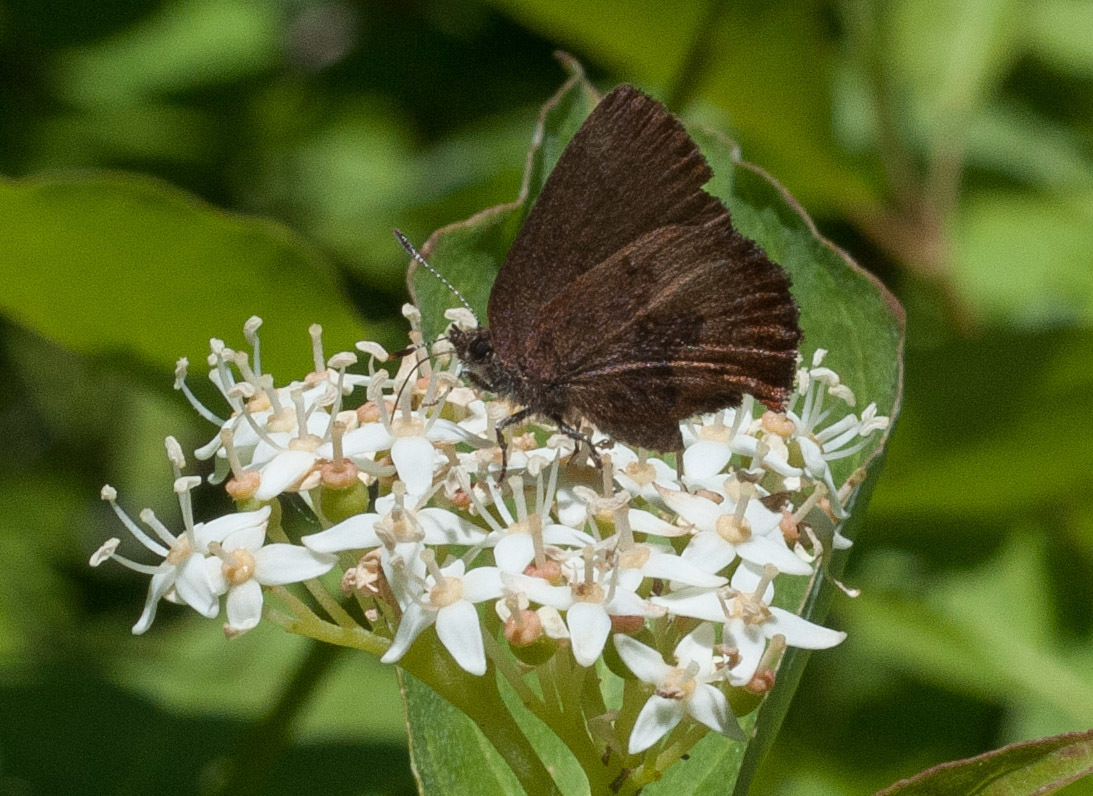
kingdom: Animalia
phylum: Arthropoda
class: Insecta
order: Lepidoptera
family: Lycaenidae
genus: Incisalia
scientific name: Incisalia irioides
